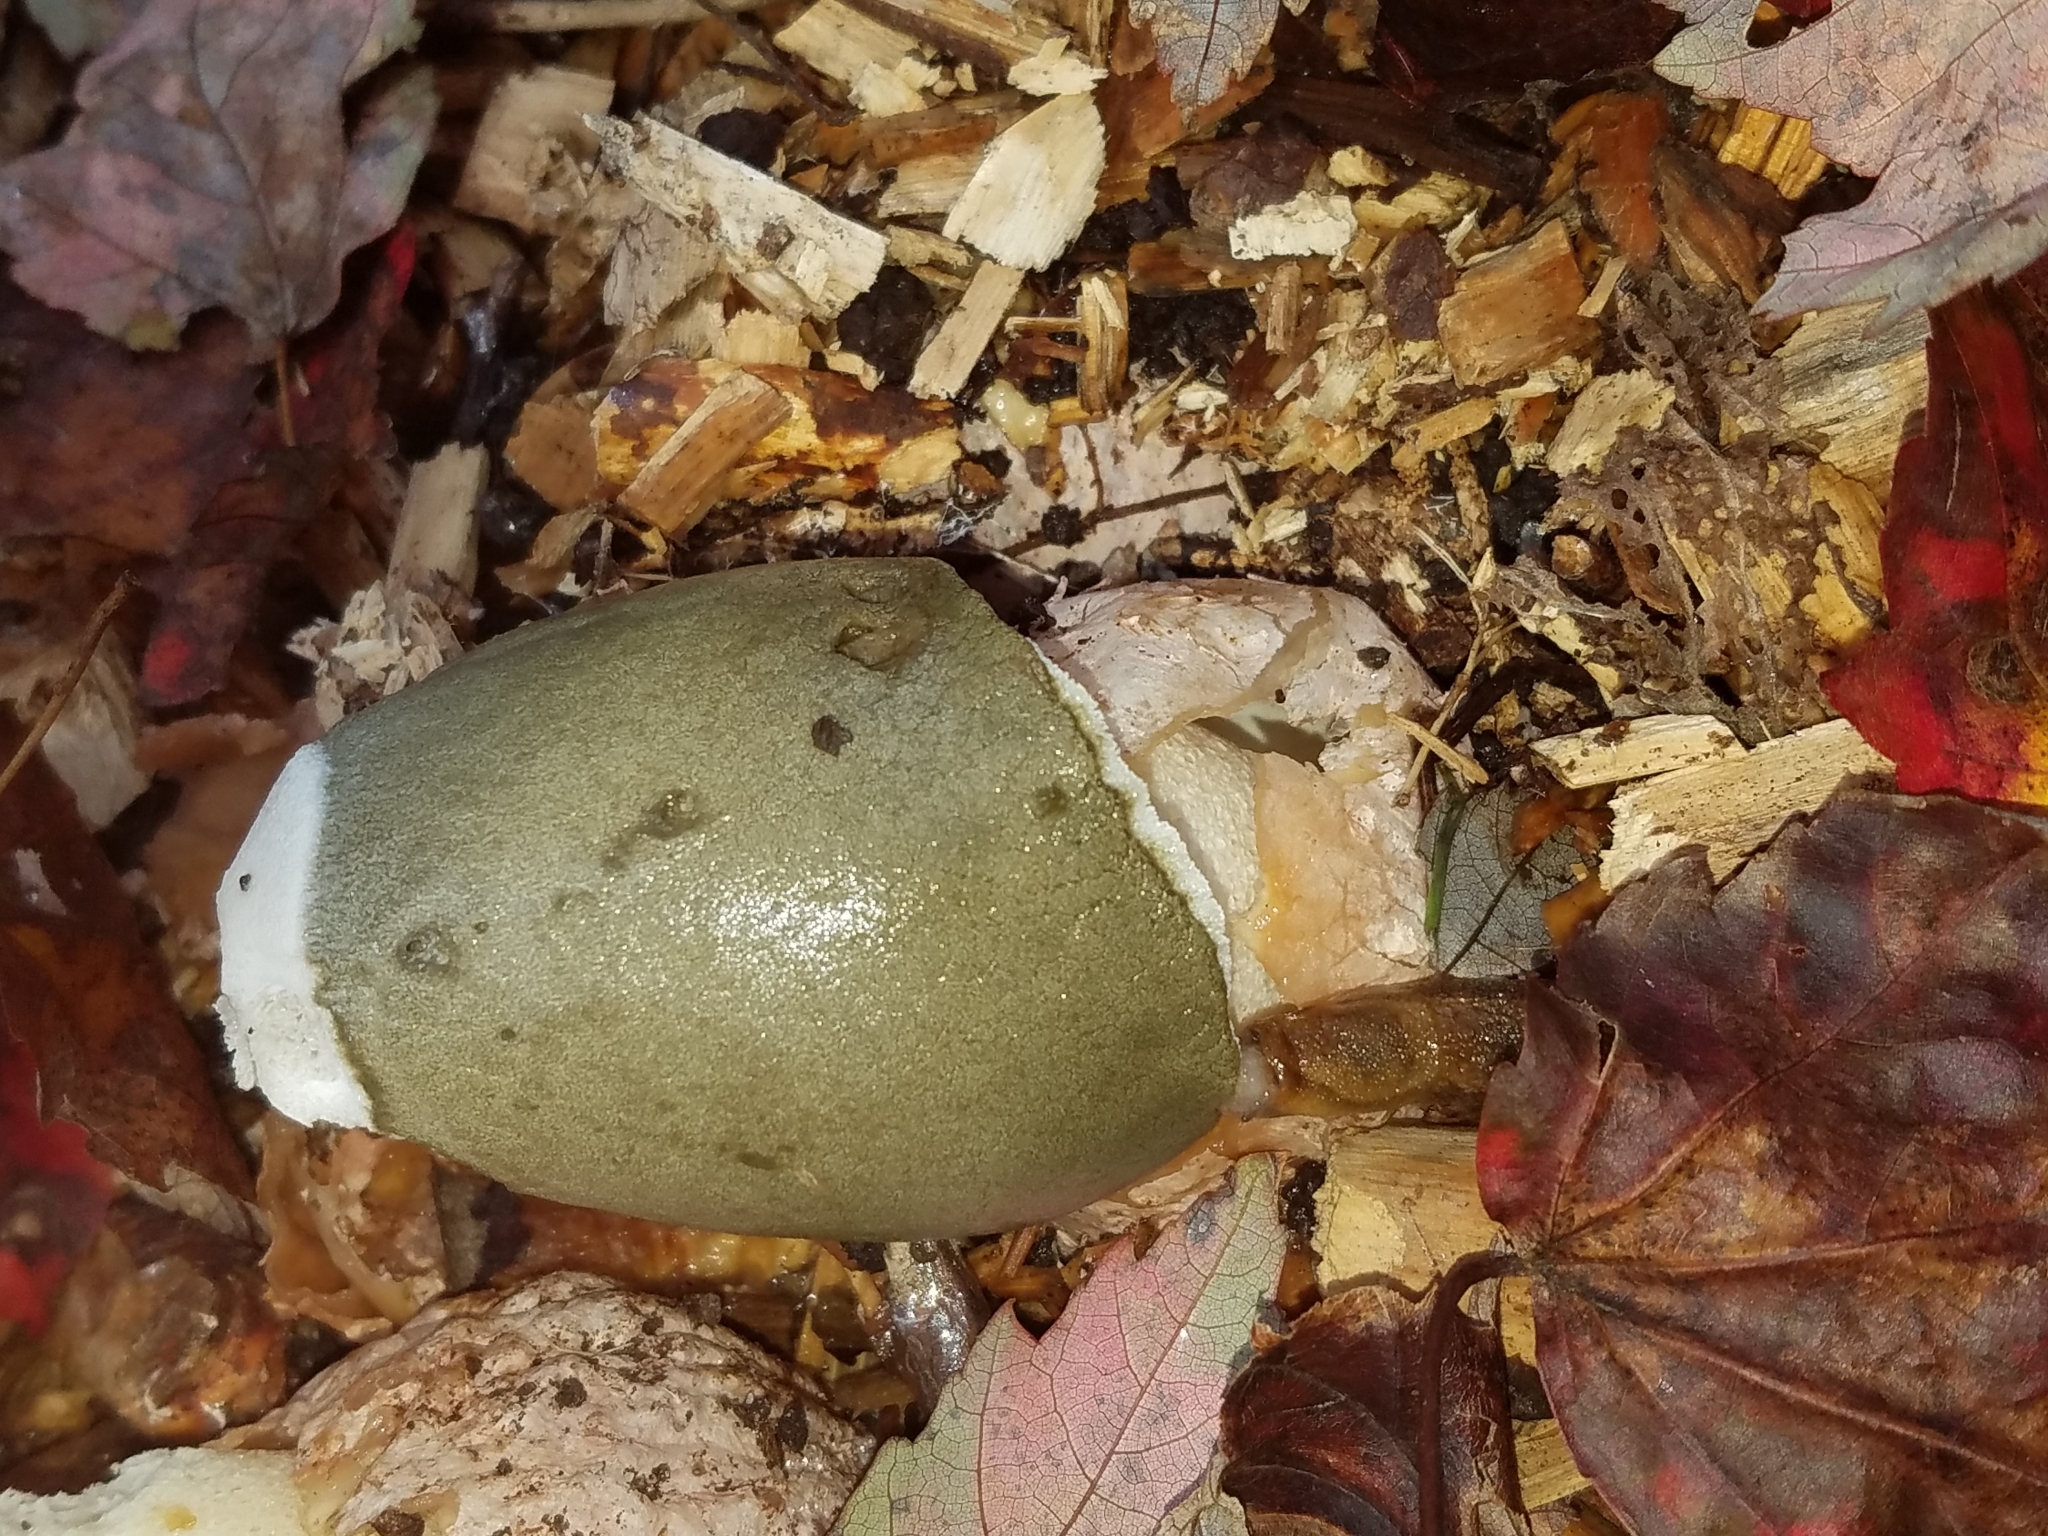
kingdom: Fungi
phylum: Basidiomycota
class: Agaricomycetes
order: Phallales
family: Phallaceae
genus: Phallus
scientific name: Phallus ravenelii
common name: Ravenel's stinkhorn
